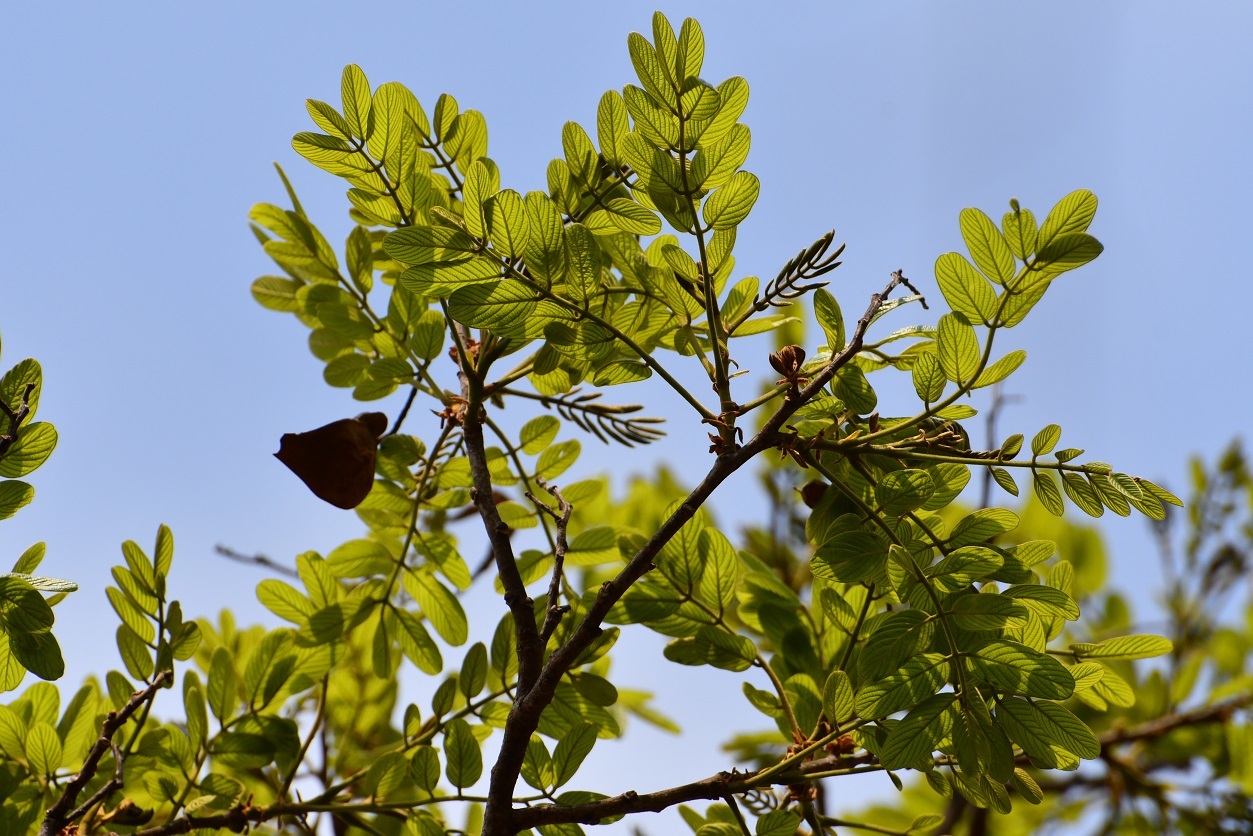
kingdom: Plantae
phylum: Tracheophyta
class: Magnoliopsida
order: Fabales
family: Fabaceae
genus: Lonchocarpus
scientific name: Lonchocarpus rugosus
